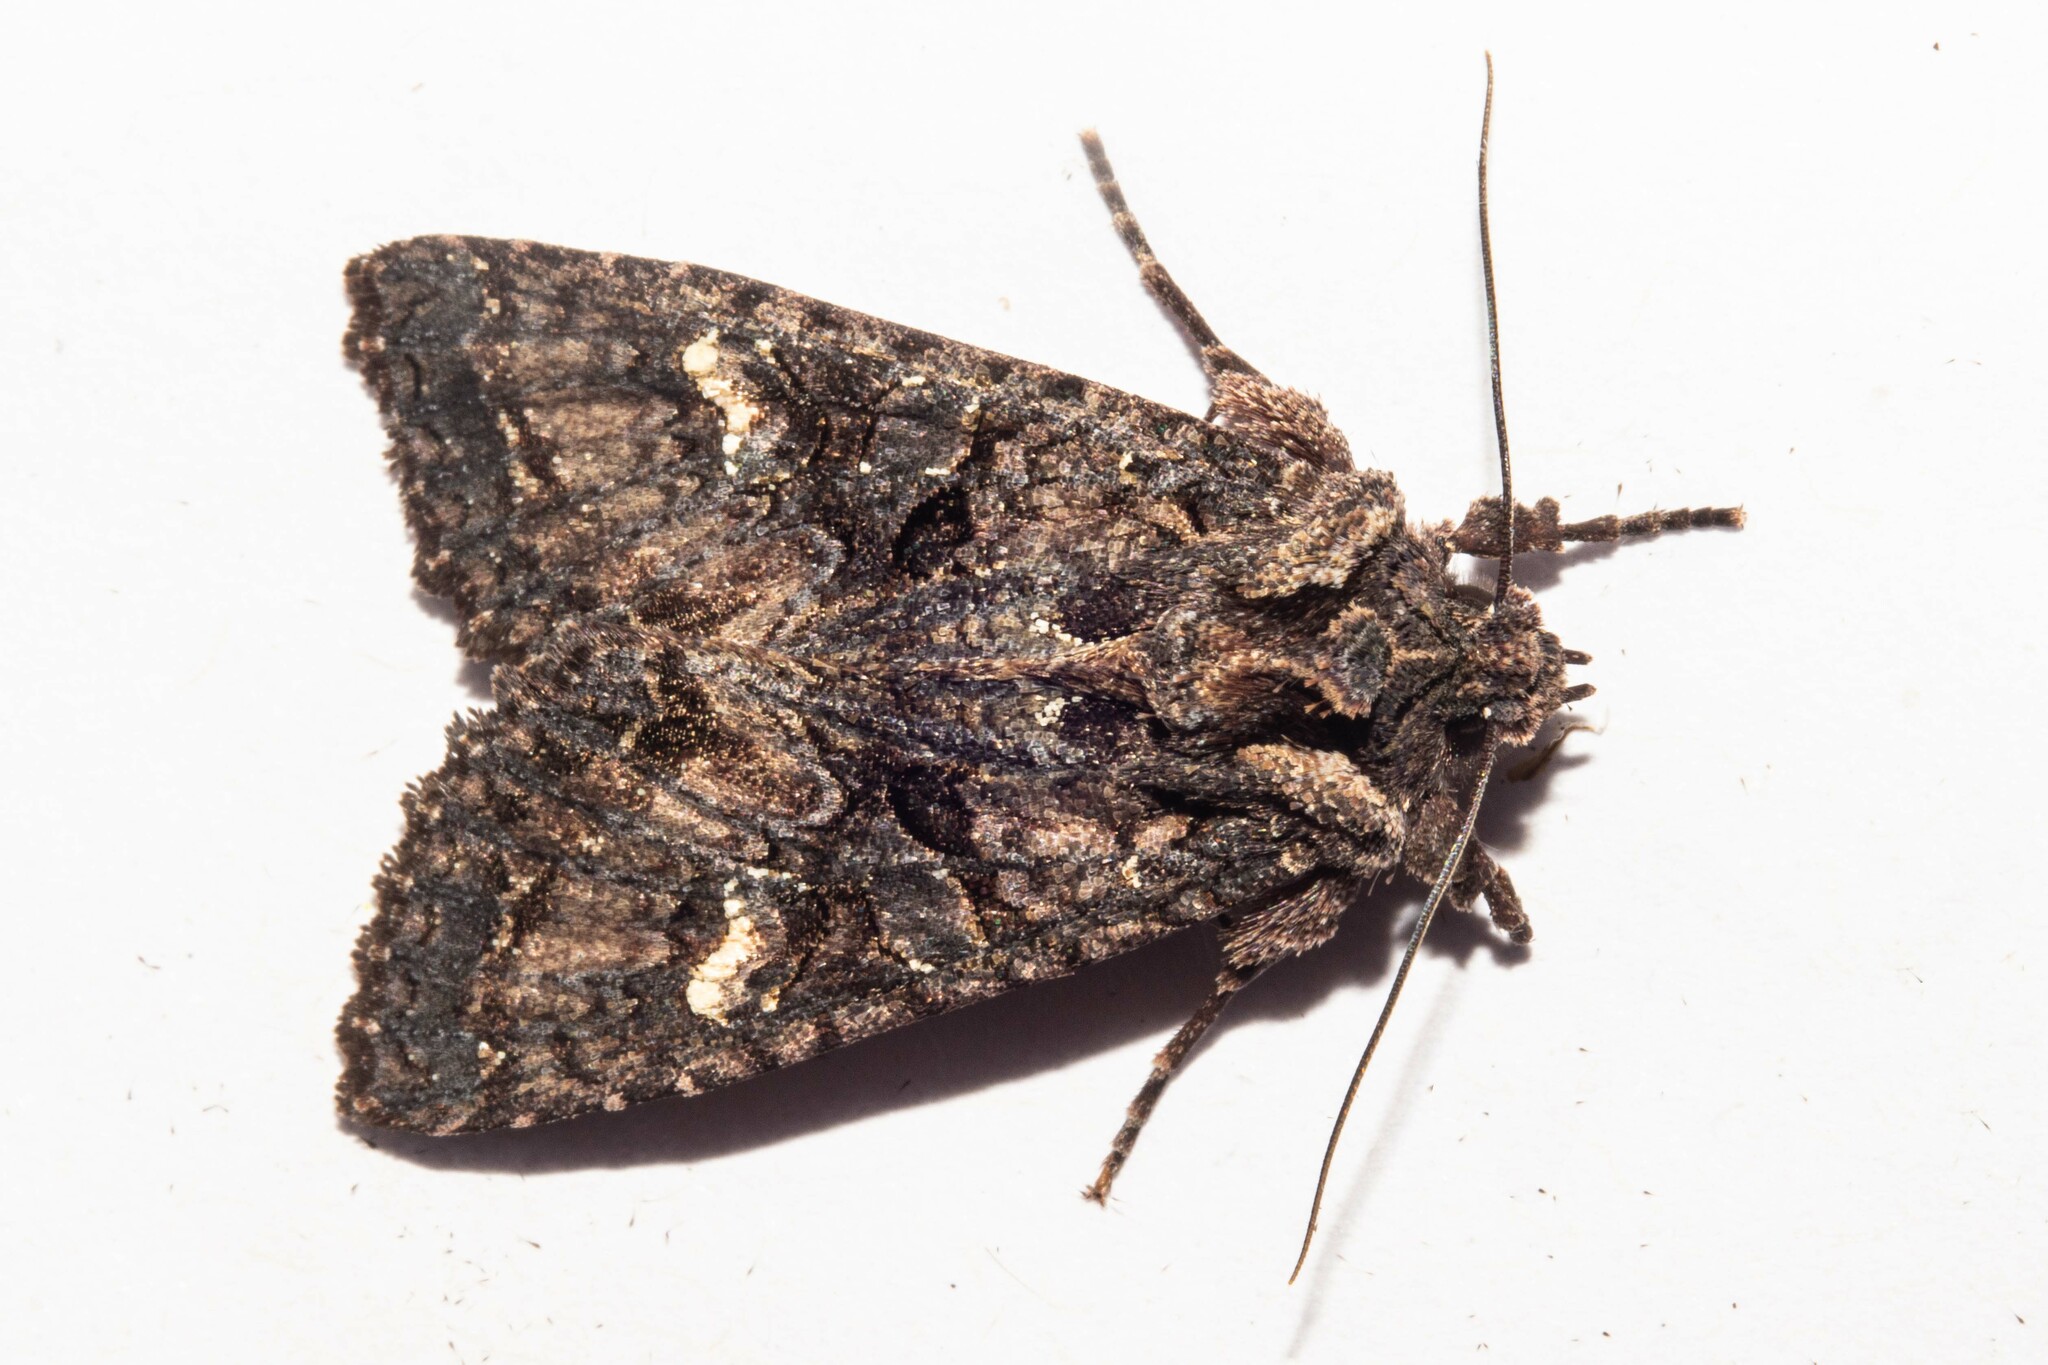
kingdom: Animalia
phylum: Arthropoda
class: Insecta
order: Lepidoptera
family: Noctuidae
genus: Meterana
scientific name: Meterana dotata
